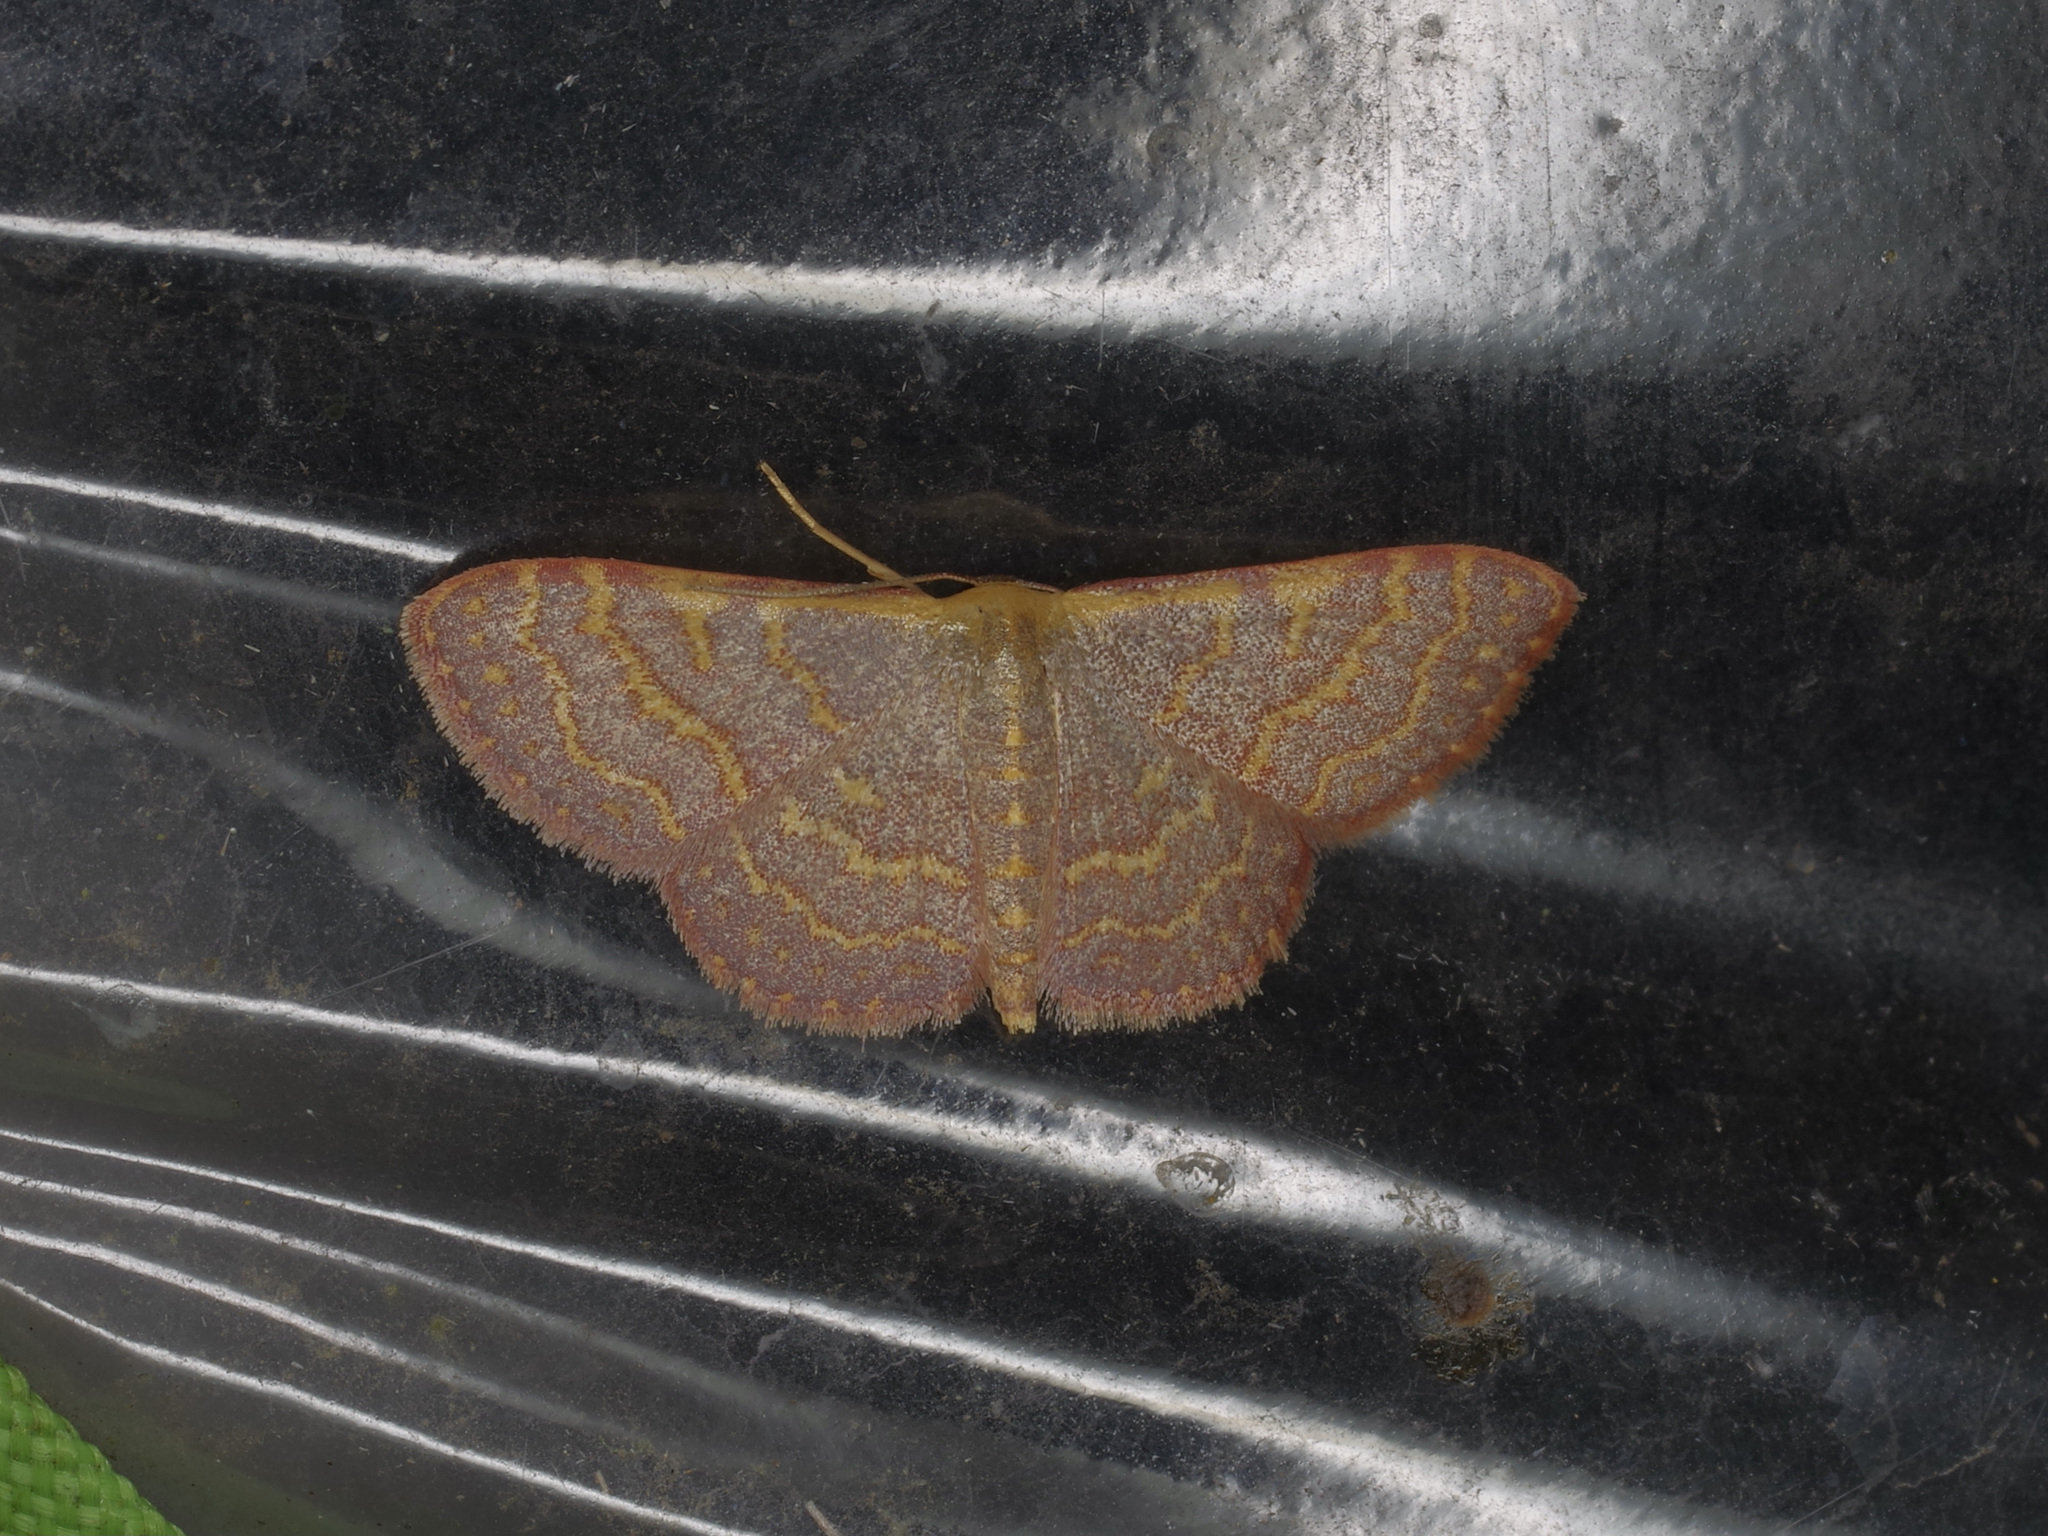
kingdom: Animalia
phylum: Arthropoda
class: Insecta
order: Lepidoptera
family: Geometridae
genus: Leptostales
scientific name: Leptostales pannaria
